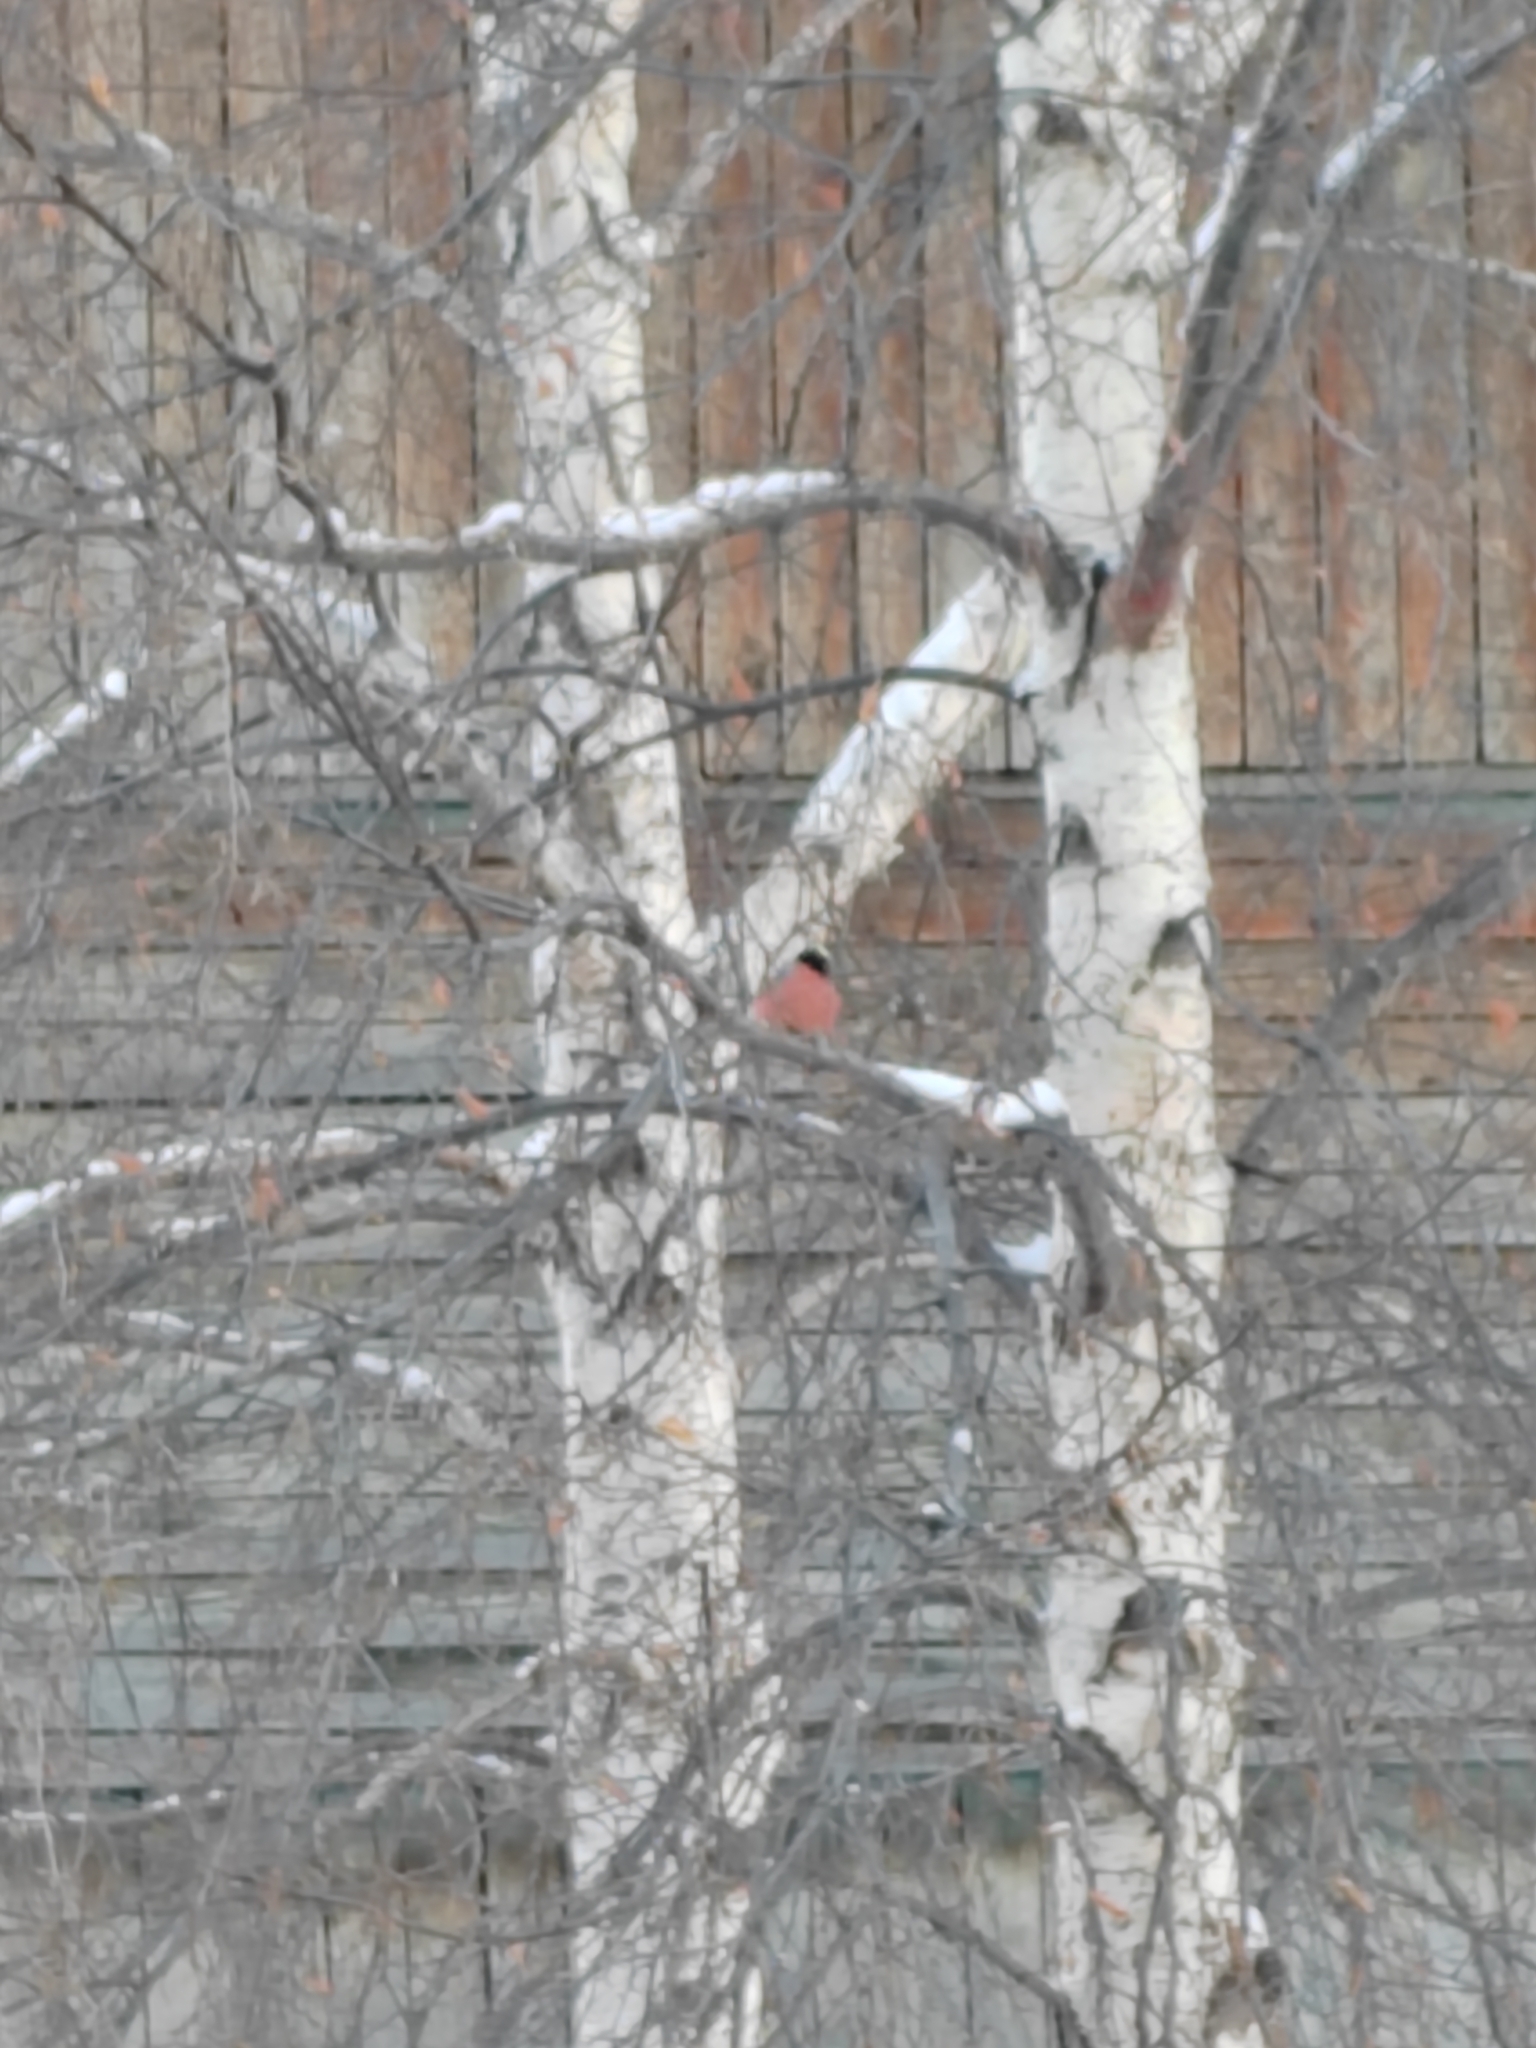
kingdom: Animalia
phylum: Chordata
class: Aves
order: Passeriformes
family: Fringillidae
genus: Pyrrhula
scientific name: Pyrrhula pyrrhula
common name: Eurasian bullfinch
